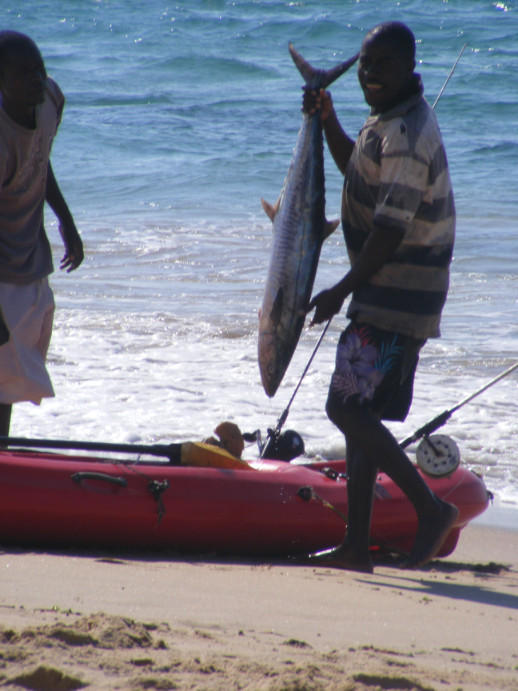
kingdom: Animalia
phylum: Chordata
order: Perciformes
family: Scombridae
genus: Scomberomorus
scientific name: Scomberomorus commerson
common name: Narrow-barred spanish mackerel
